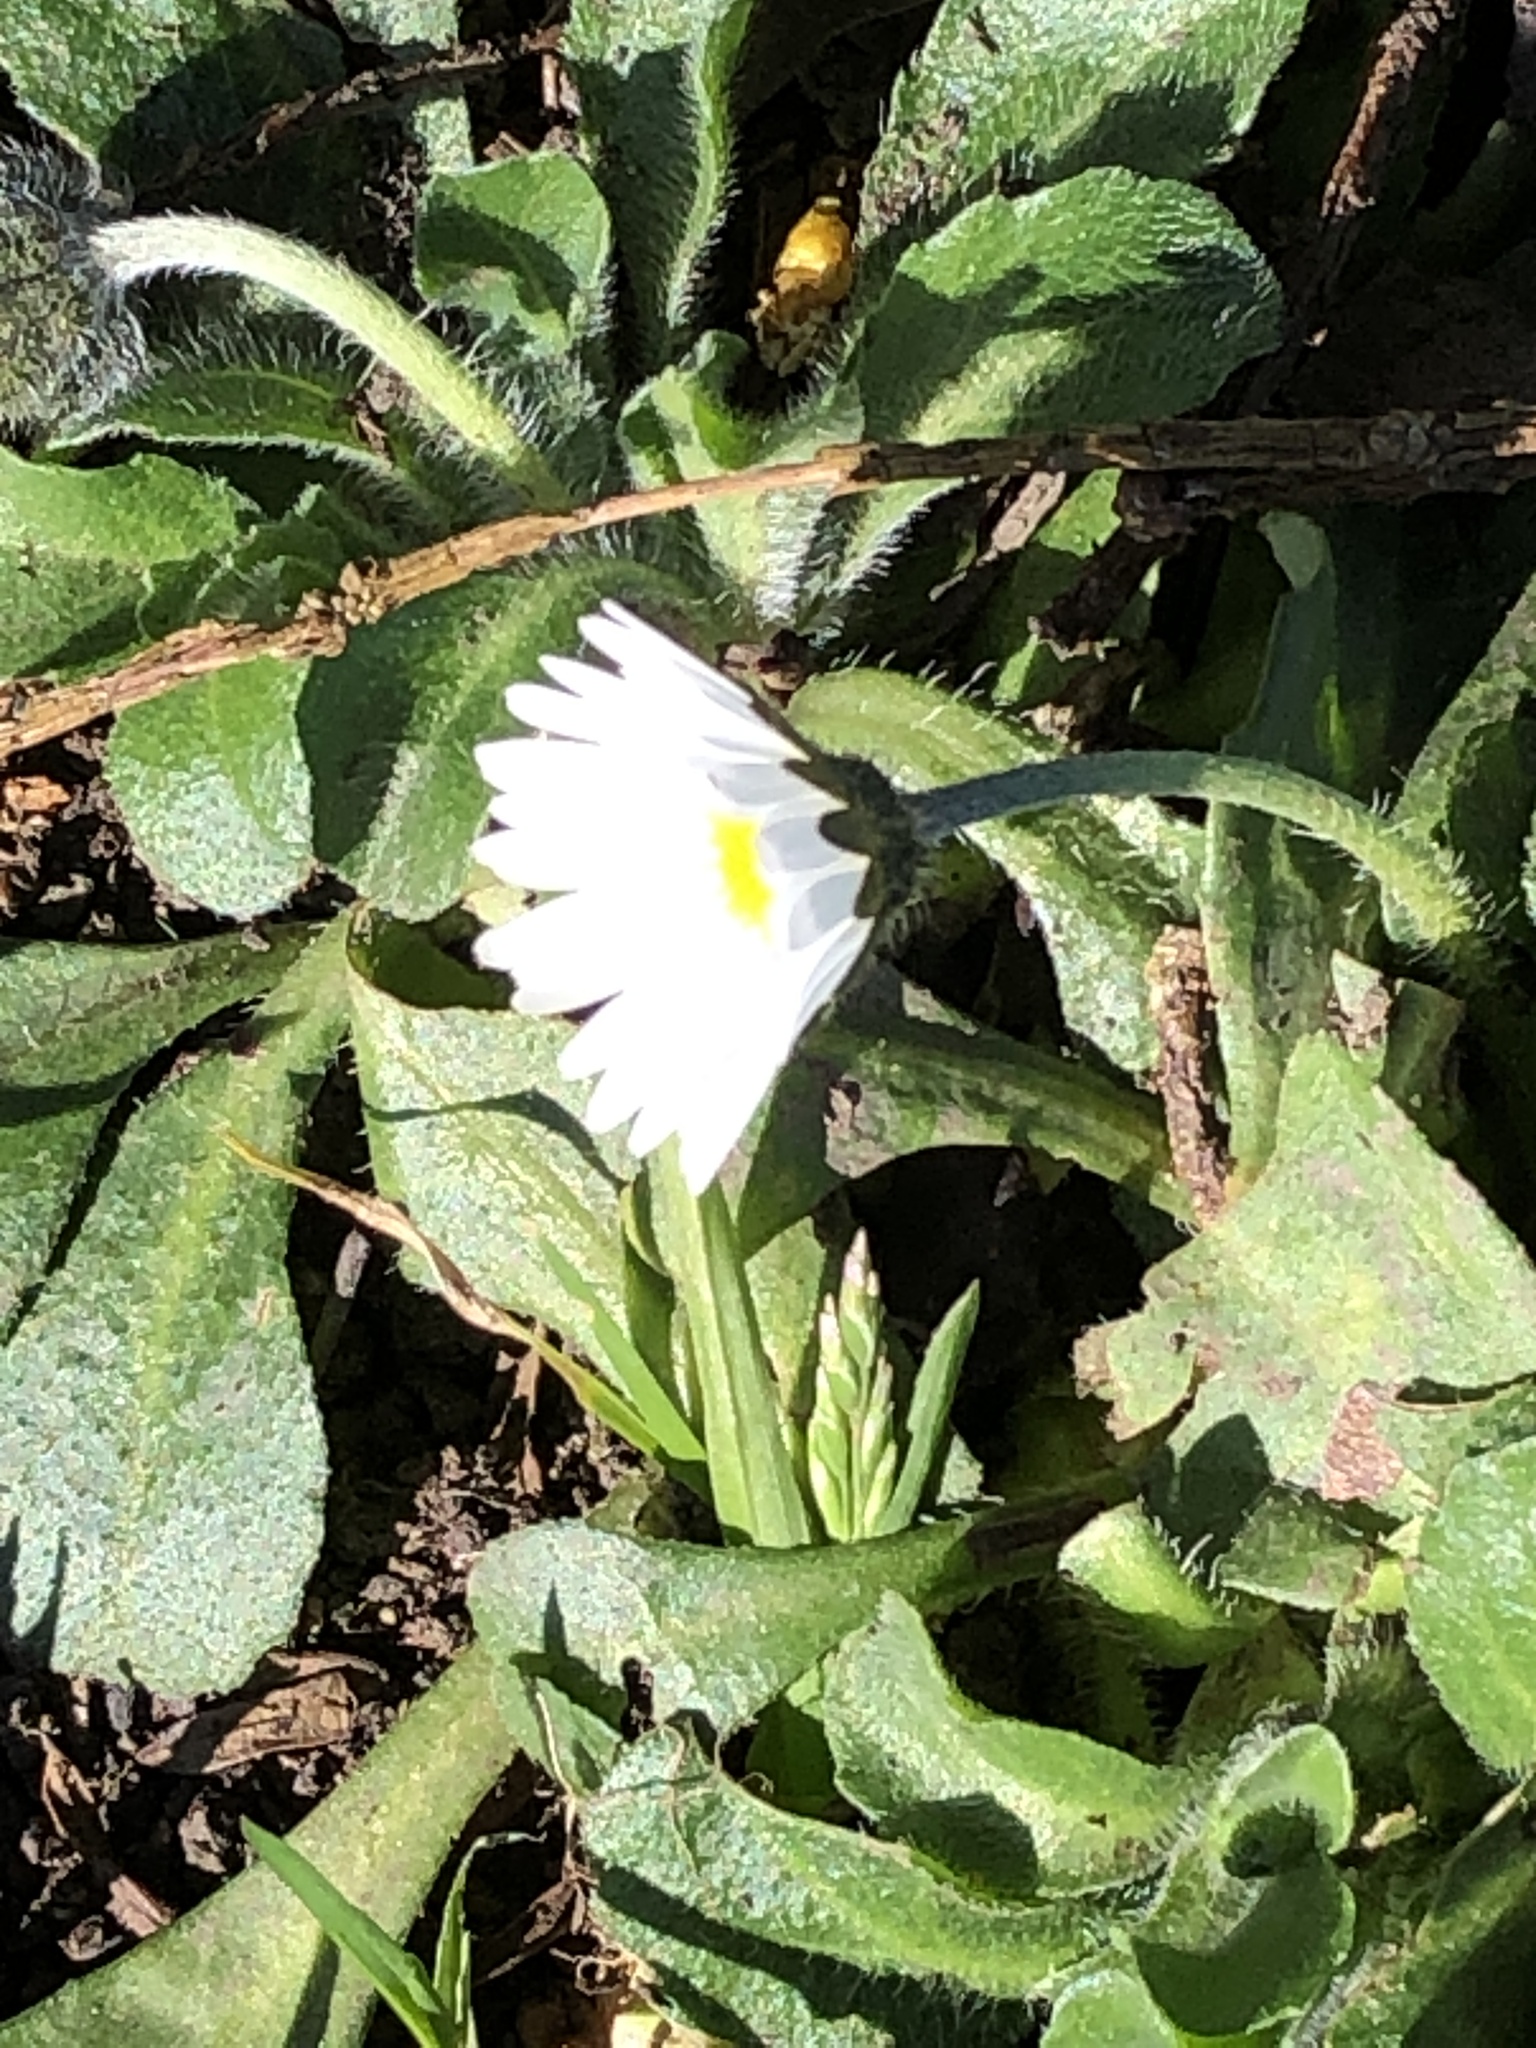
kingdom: Plantae
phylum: Tracheophyta
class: Magnoliopsida
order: Asterales
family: Asteraceae
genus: Bellis
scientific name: Bellis perennis
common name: Lawndaisy
